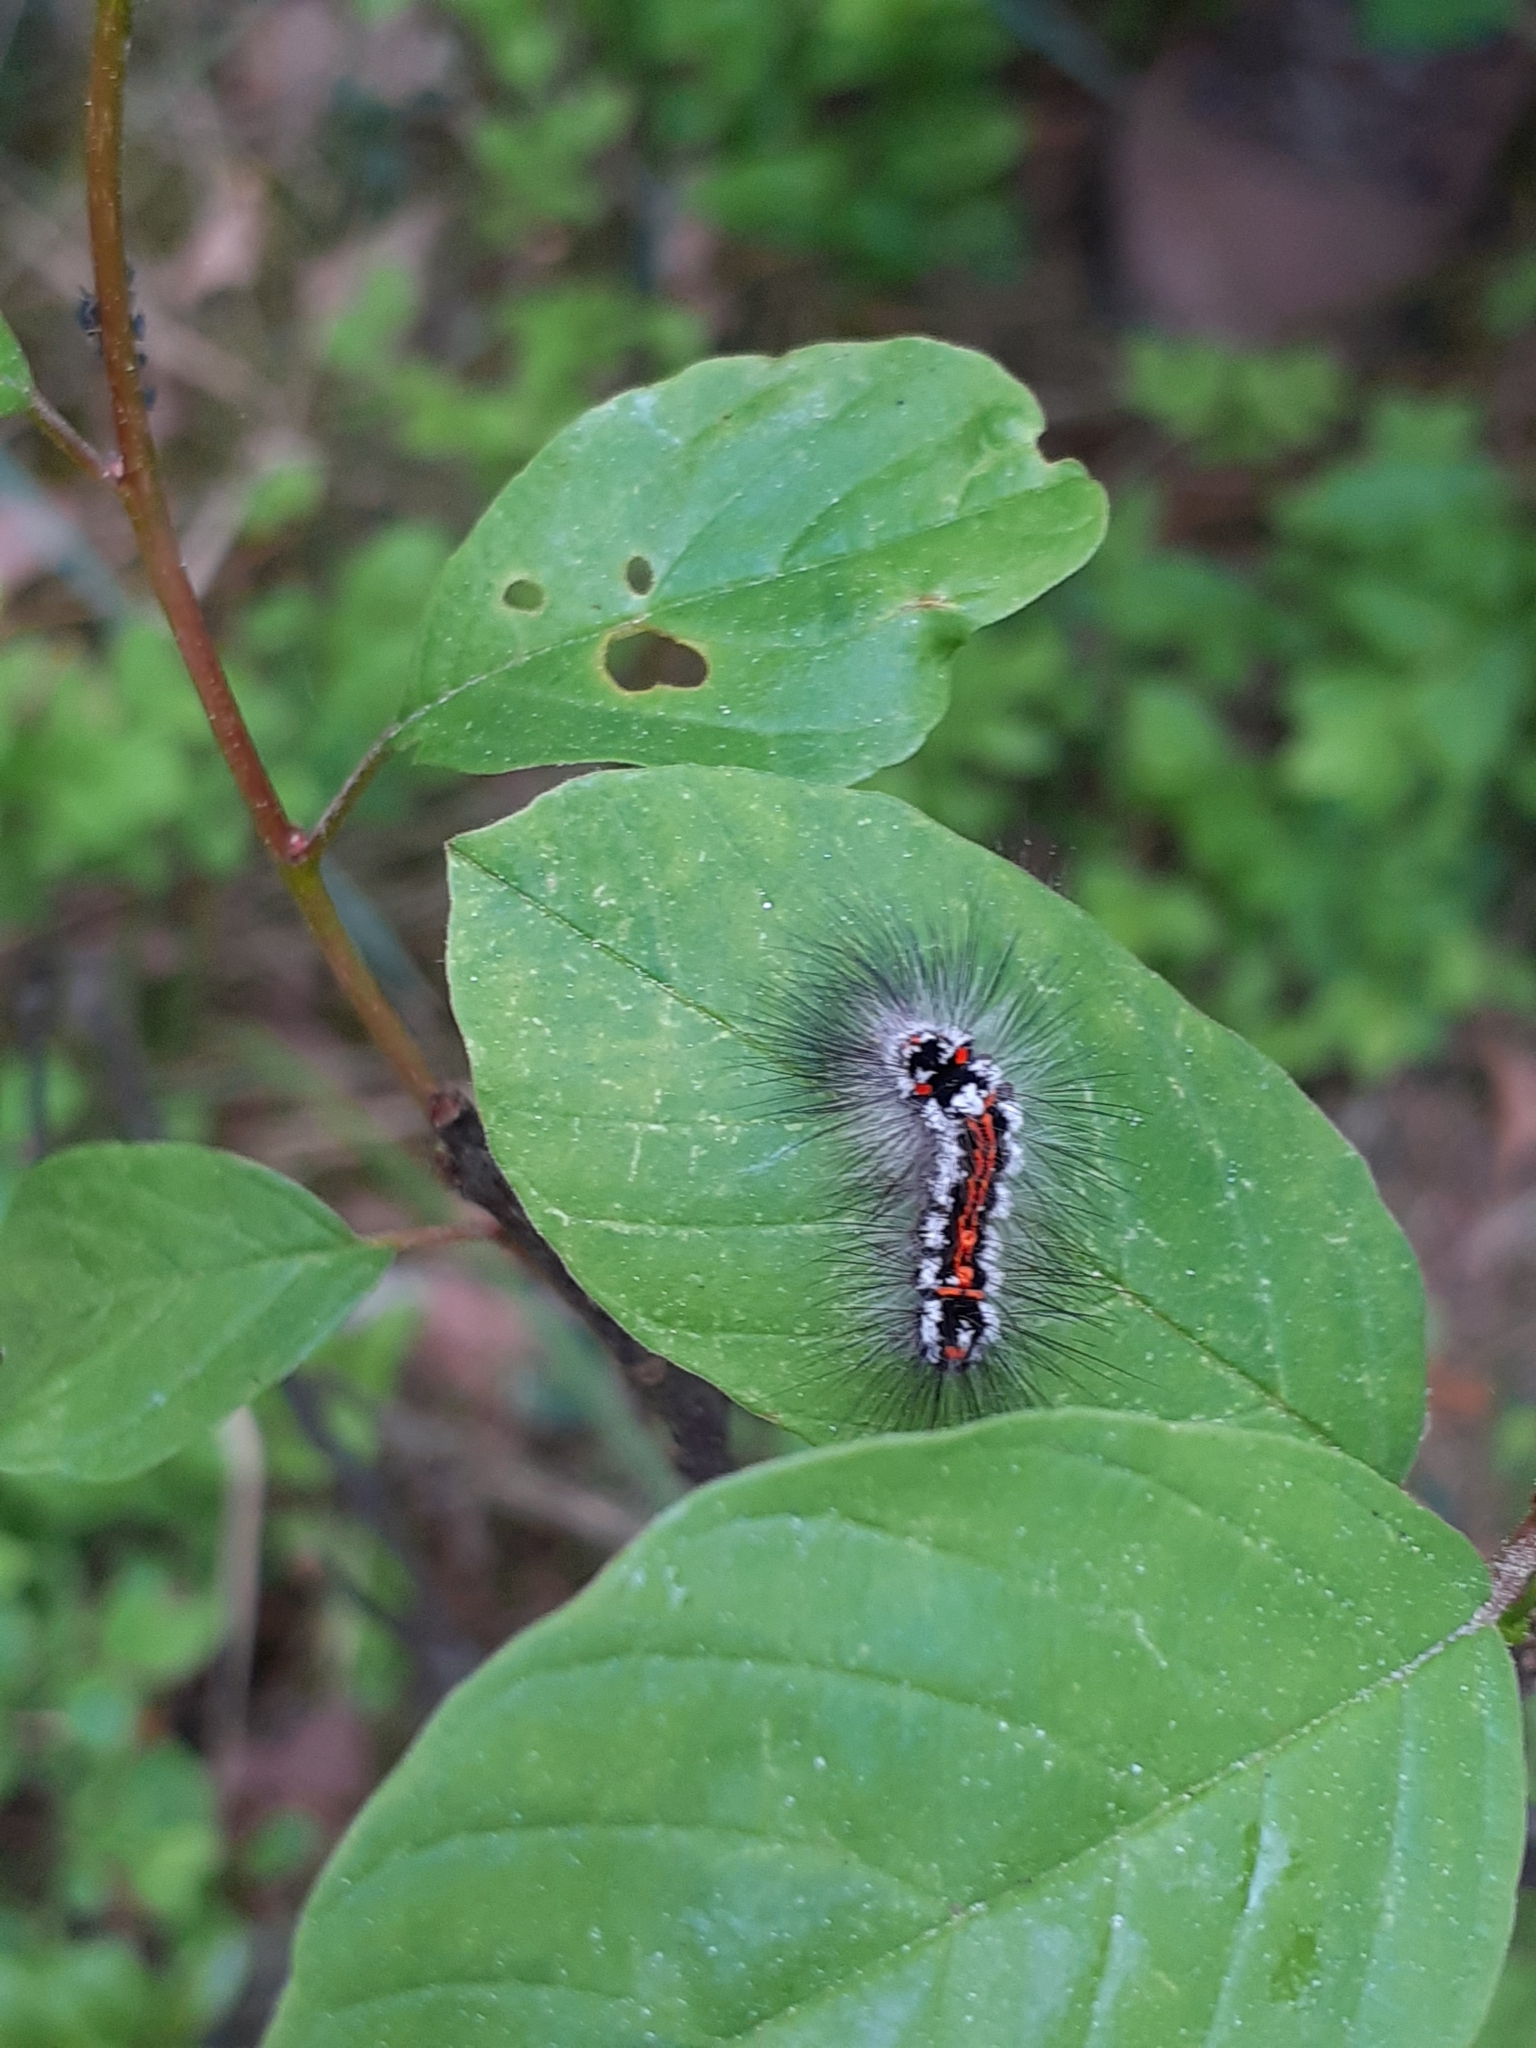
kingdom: Animalia
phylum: Arthropoda
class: Insecta
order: Lepidoptera
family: Erebidae
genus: Sphrageidus
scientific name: Sphrageidus similis
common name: Yellow-tail
